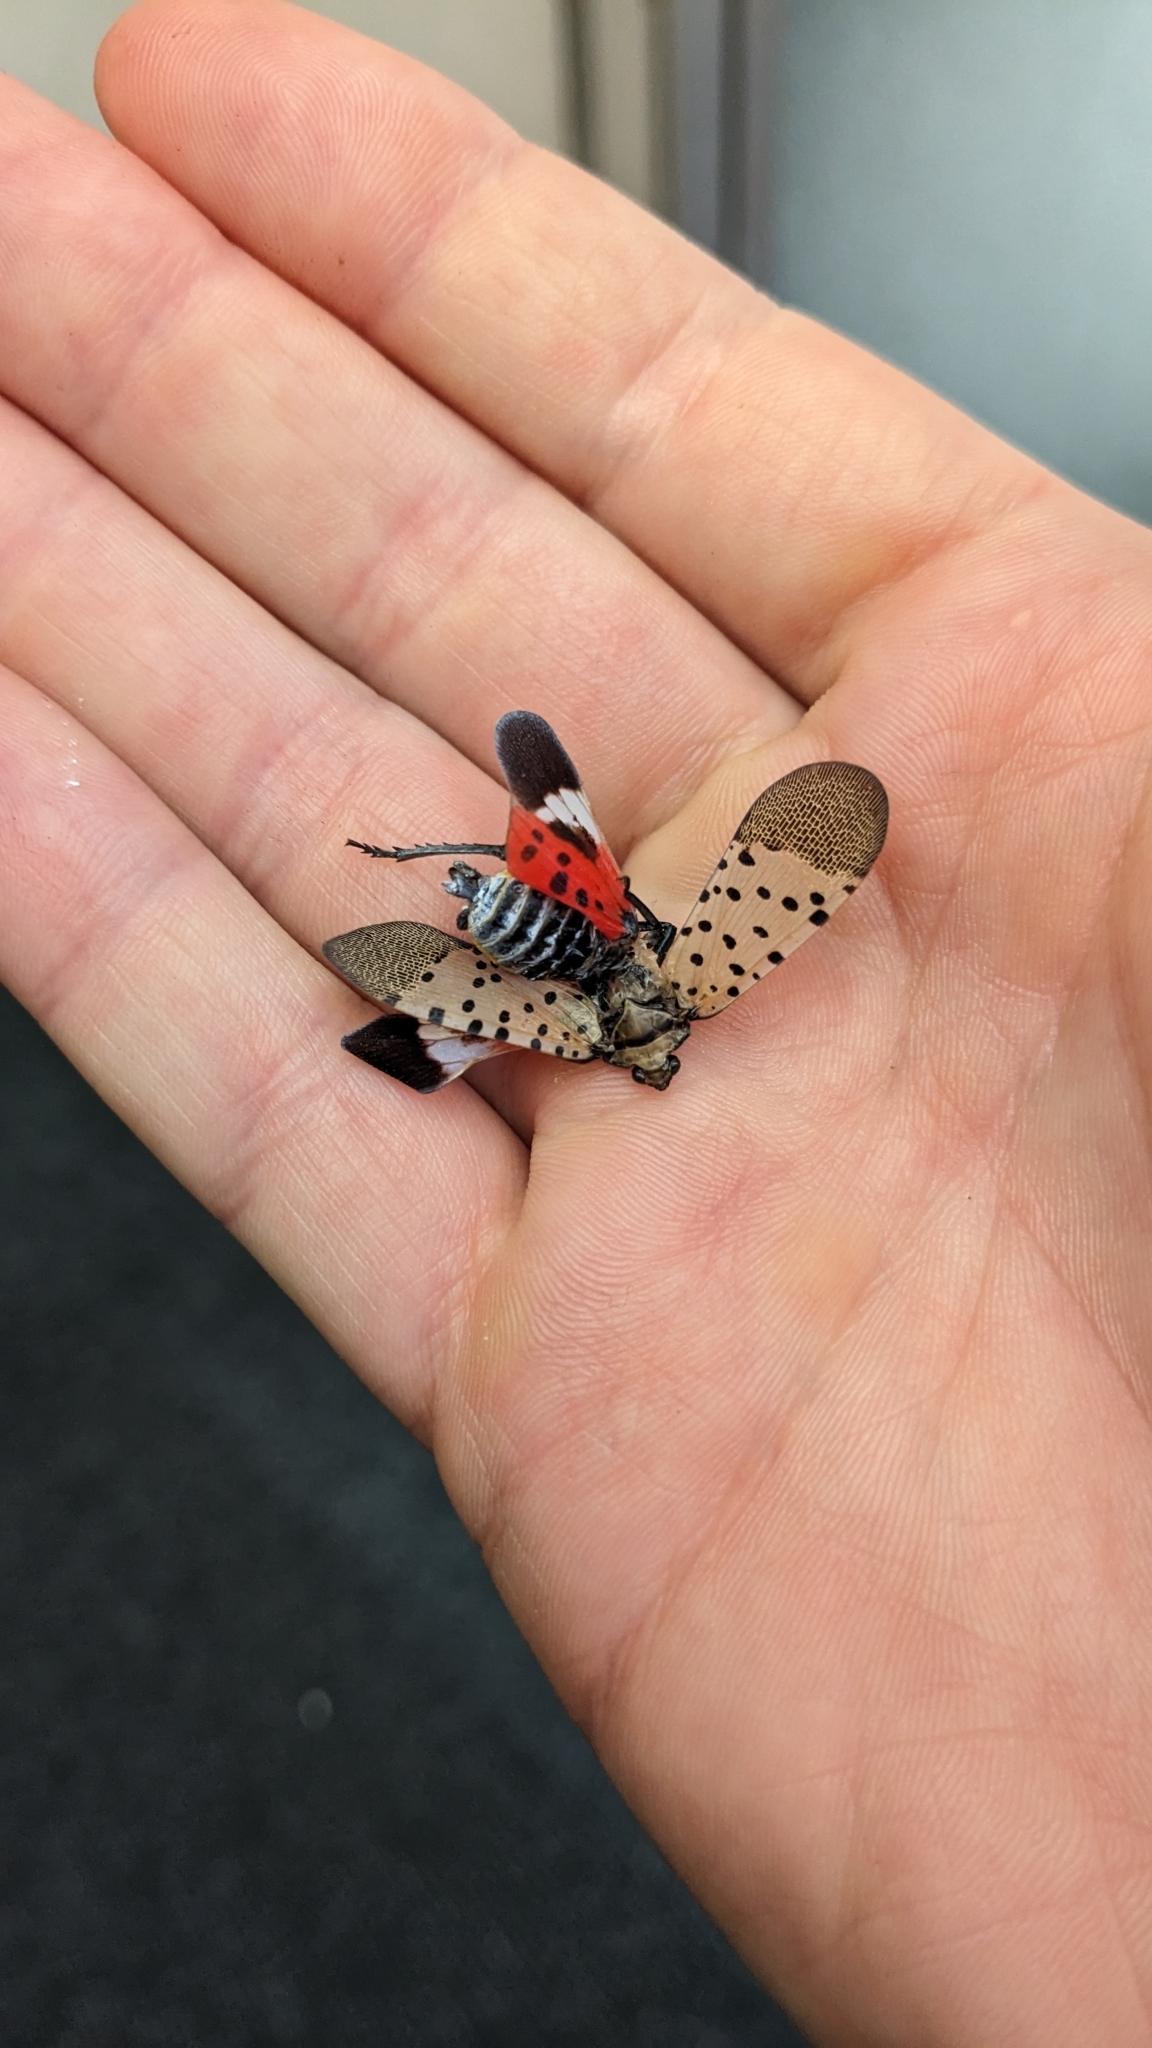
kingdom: Animalia
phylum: Arthropoda
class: Insecta
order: Hemiptera
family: Fulgoridae
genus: Lycorma
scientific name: Lycorma delicatula
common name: Spotted lanternfly
